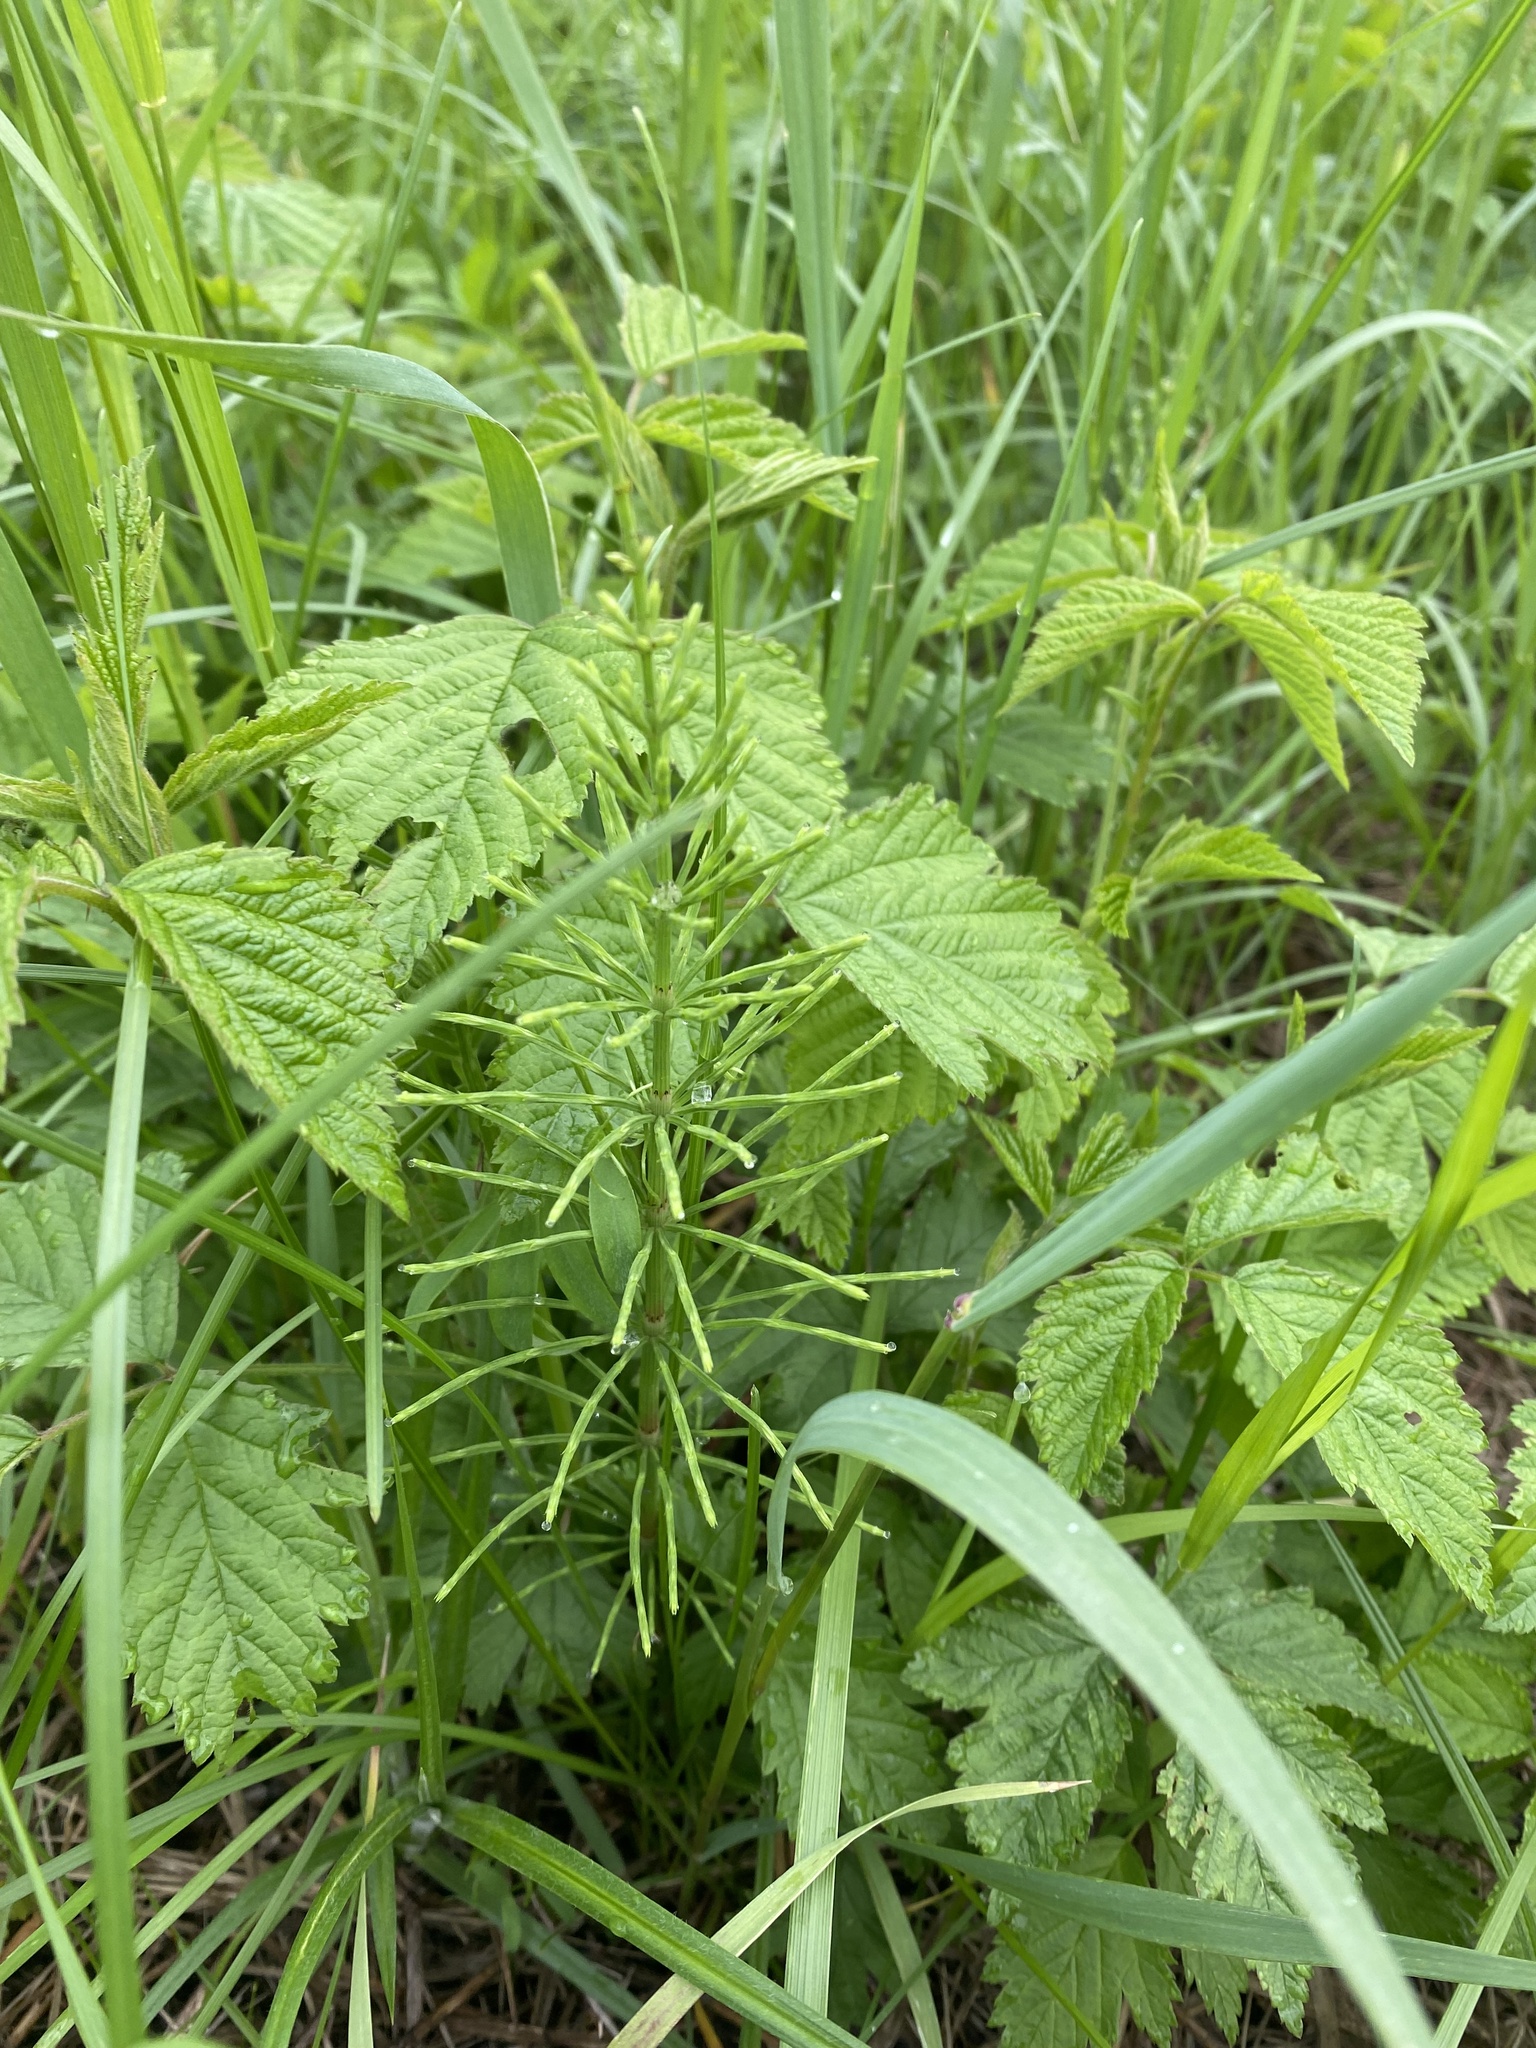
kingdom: Plantae
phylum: Tracheophyta
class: Polypodiopsida
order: Equisetales
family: Equisetaceae
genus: Equisetum
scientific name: Equisetum arvense
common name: Field horsetail
